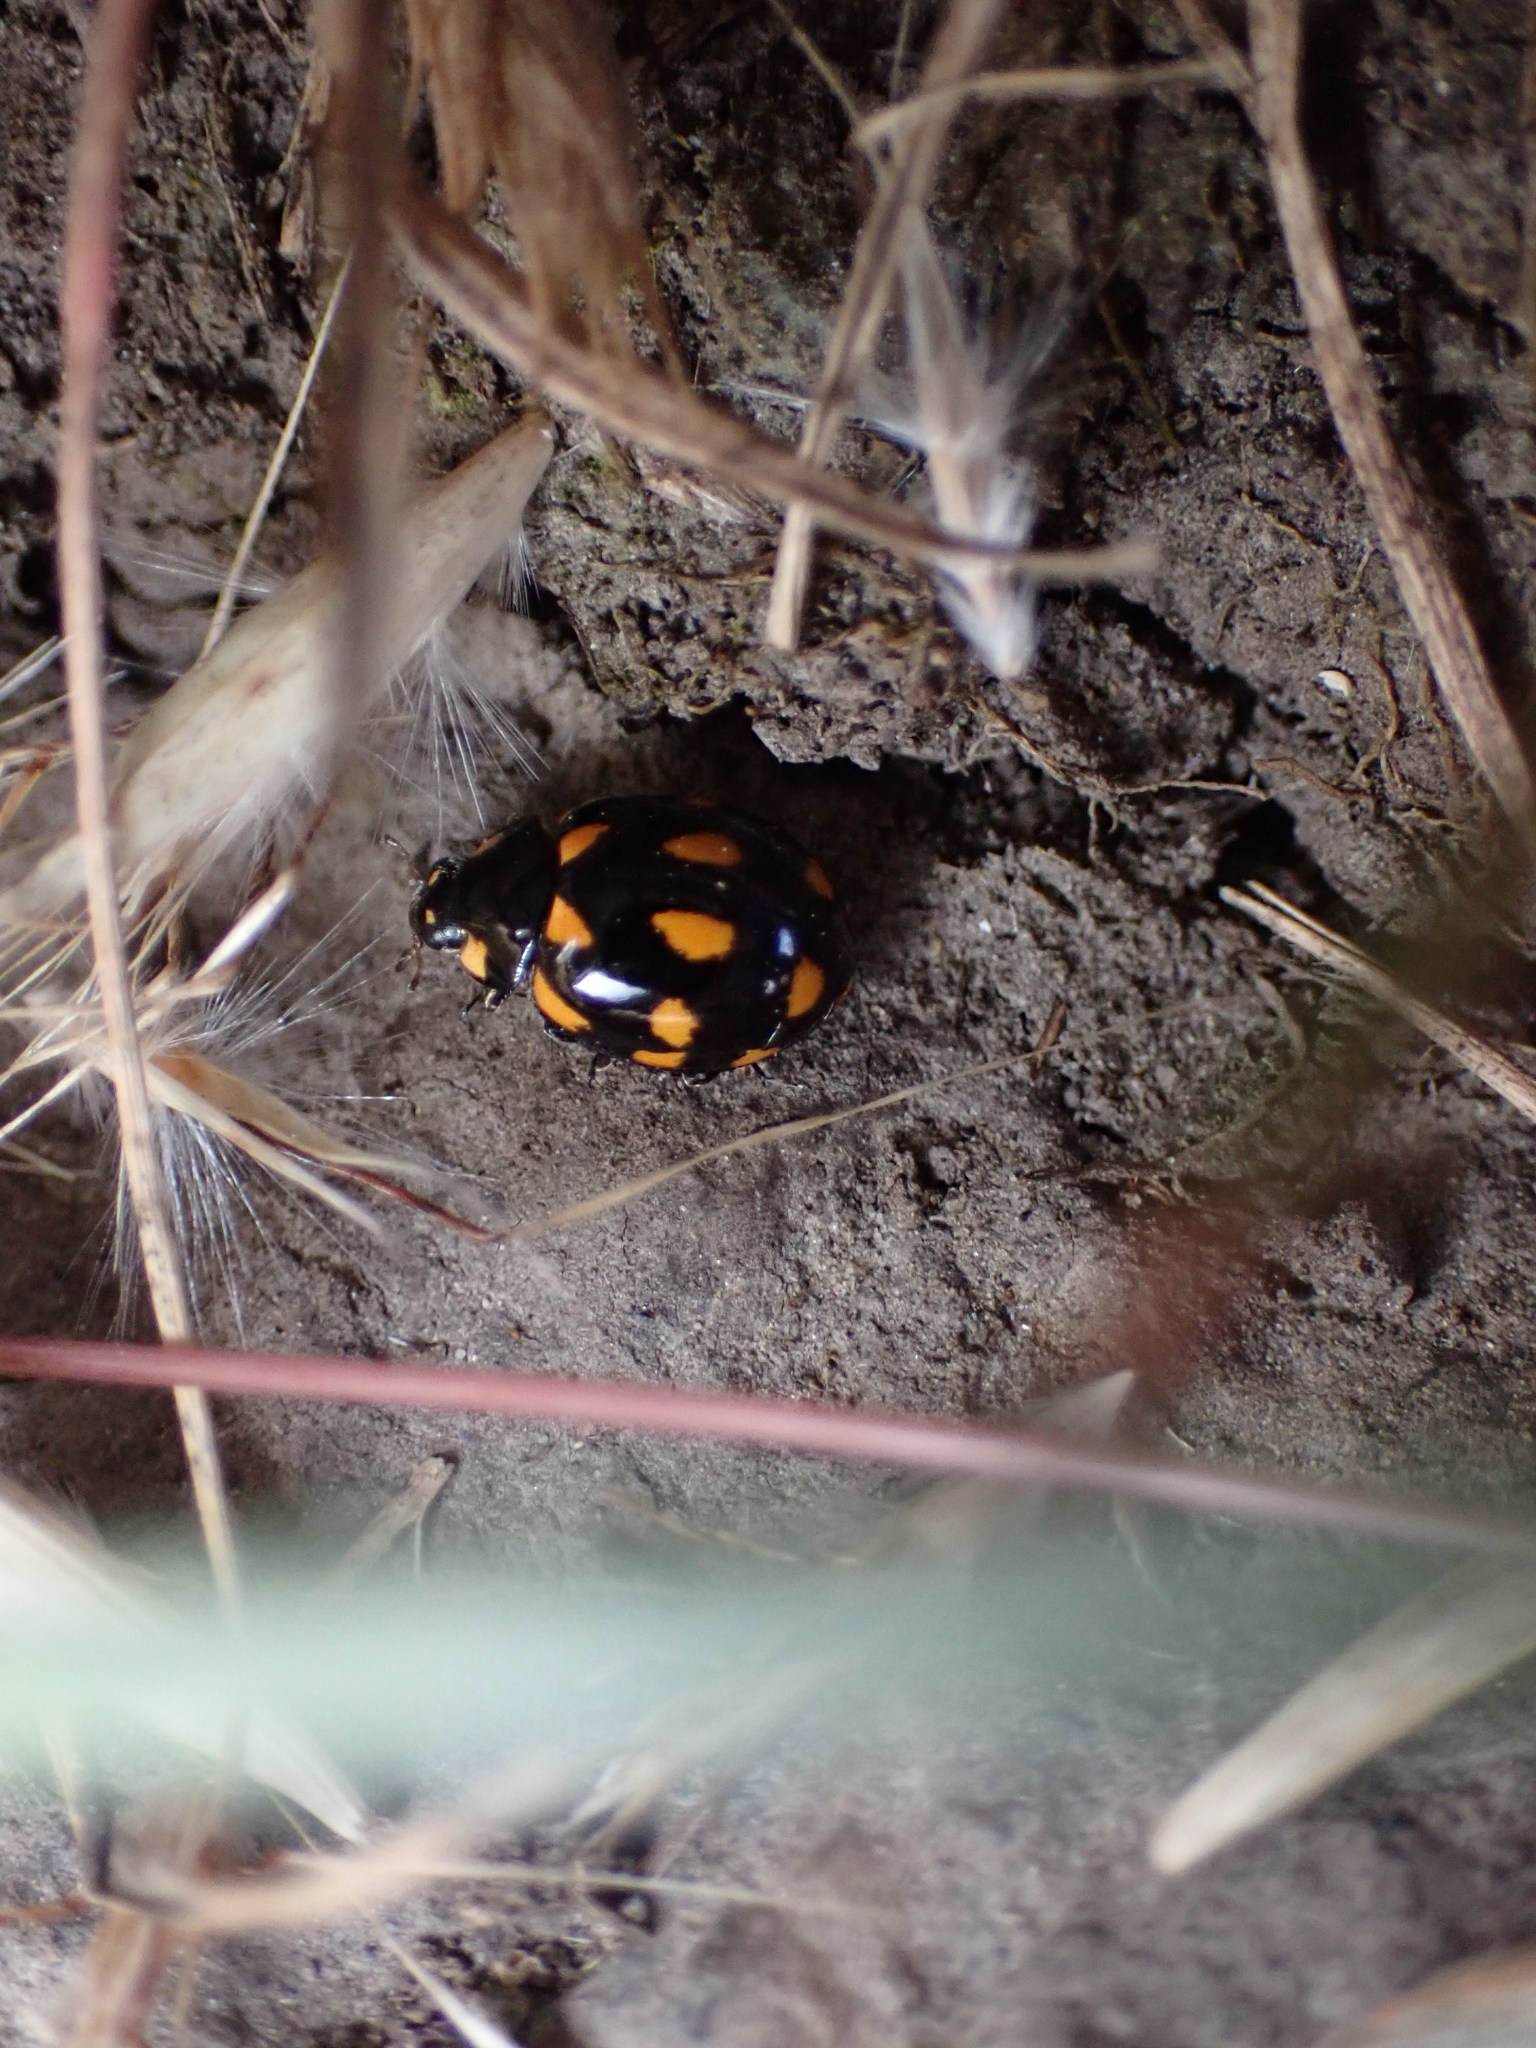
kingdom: Animalia
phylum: Arthropoda
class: Insecta
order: Coleoptera
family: Coccinellidae
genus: Coccinella
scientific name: Coccinella leonina
